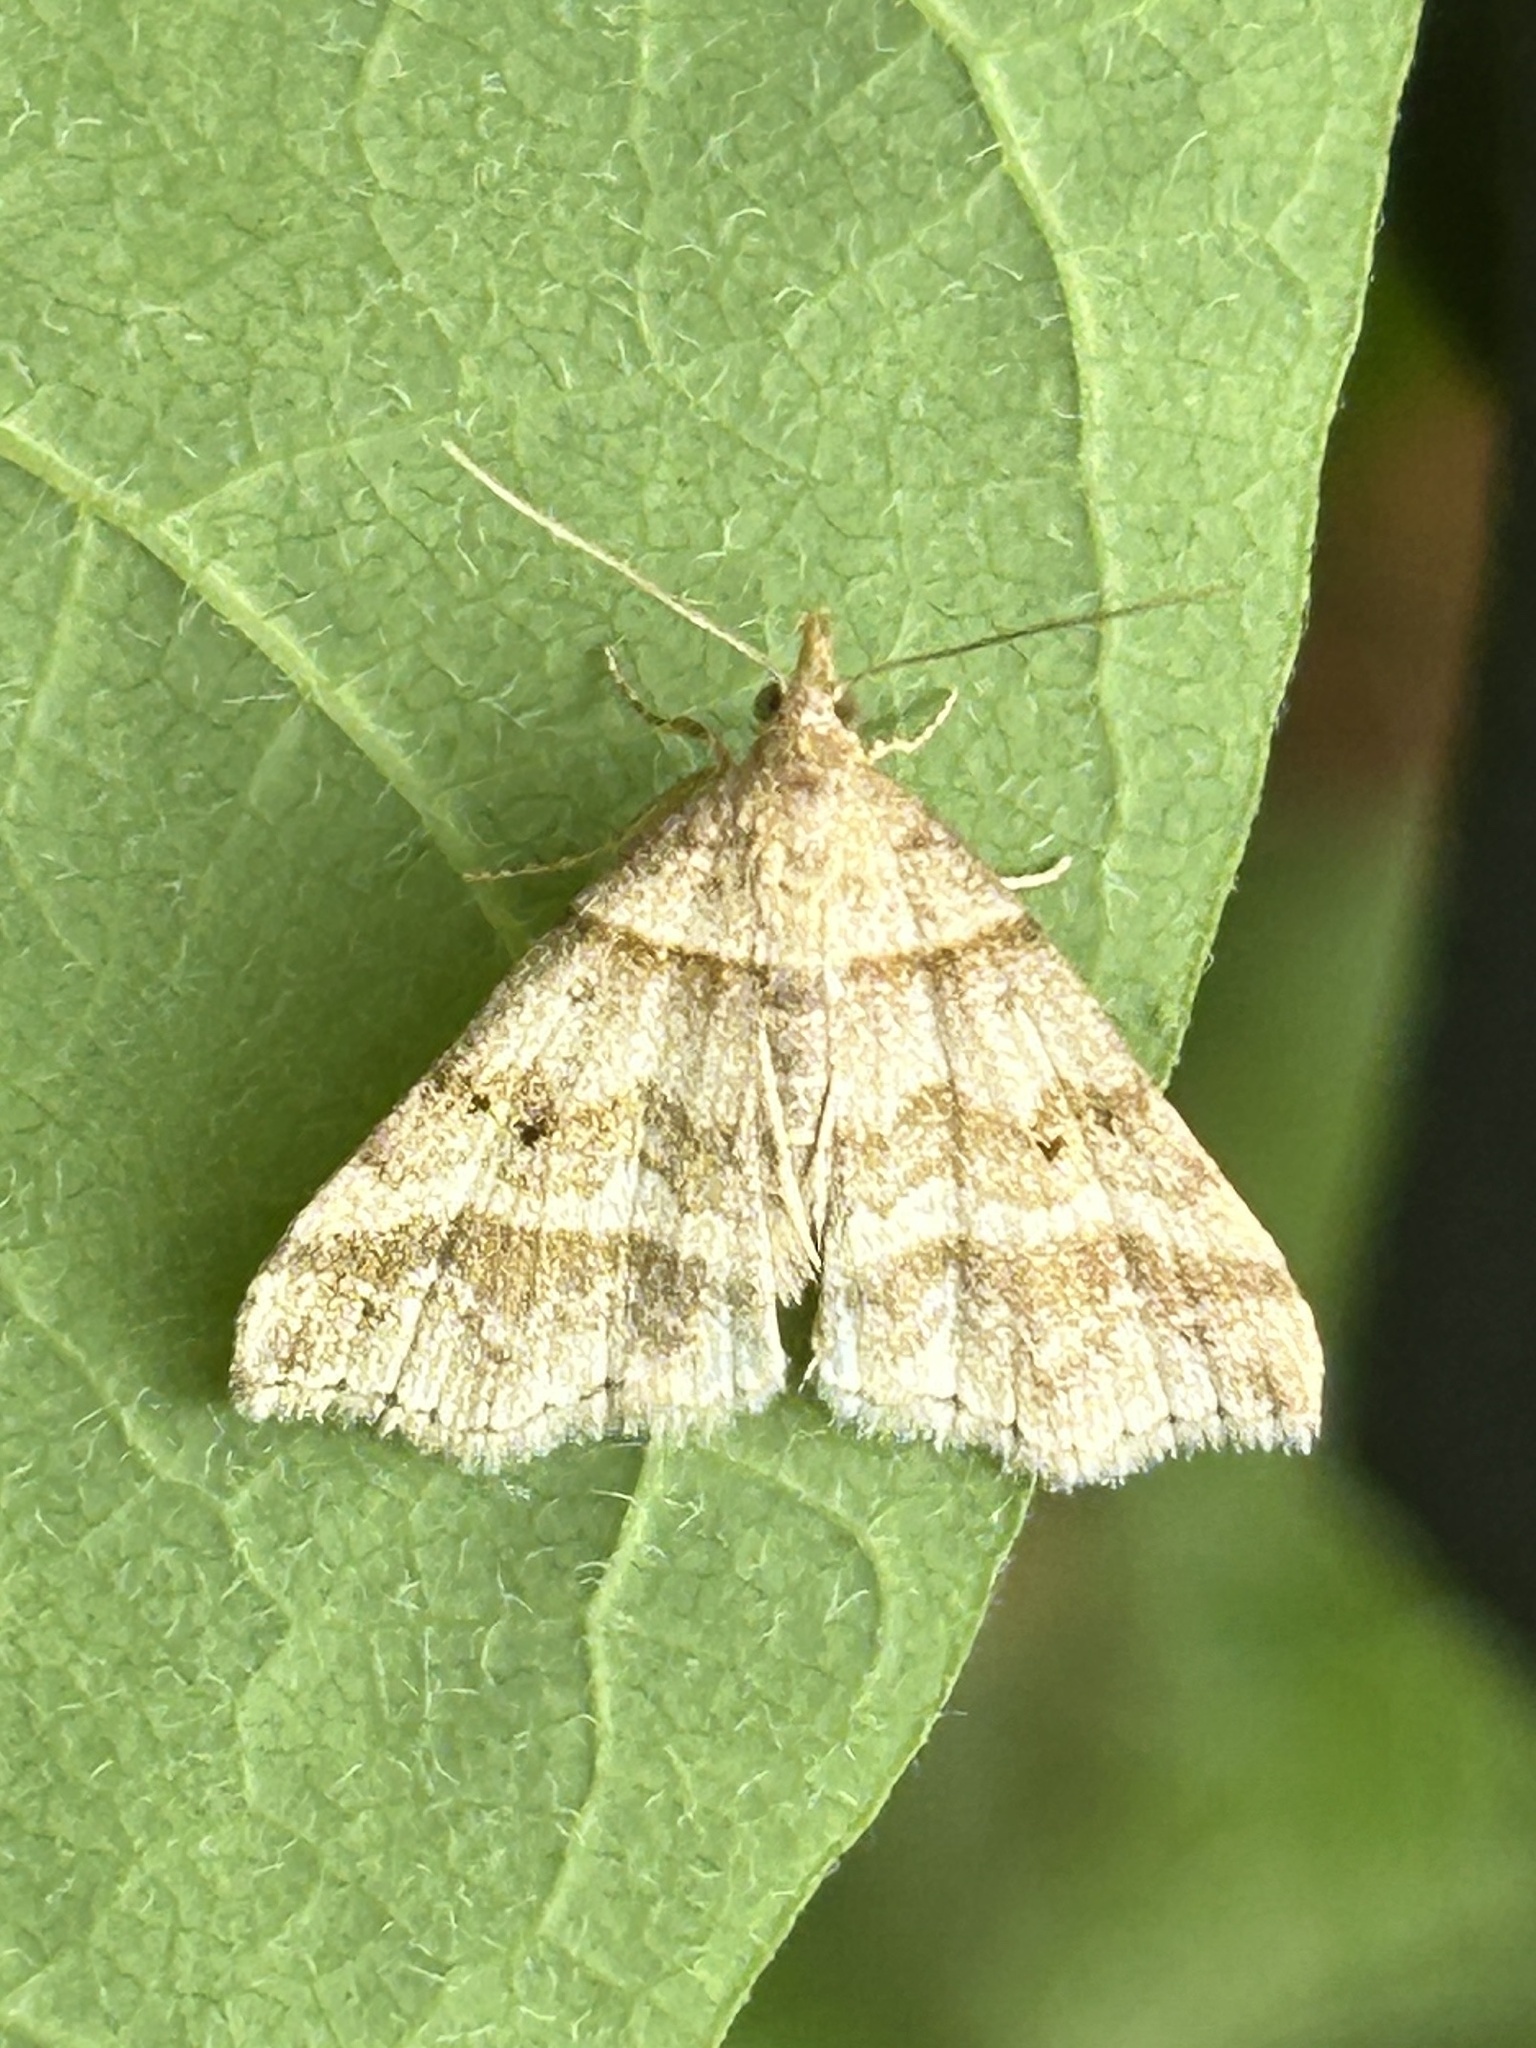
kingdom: Animalia
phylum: Arthropoda
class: Insecta
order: Lepidoptera
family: Erebidae
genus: Phaeolita
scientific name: Phaeolita pyramusalis
